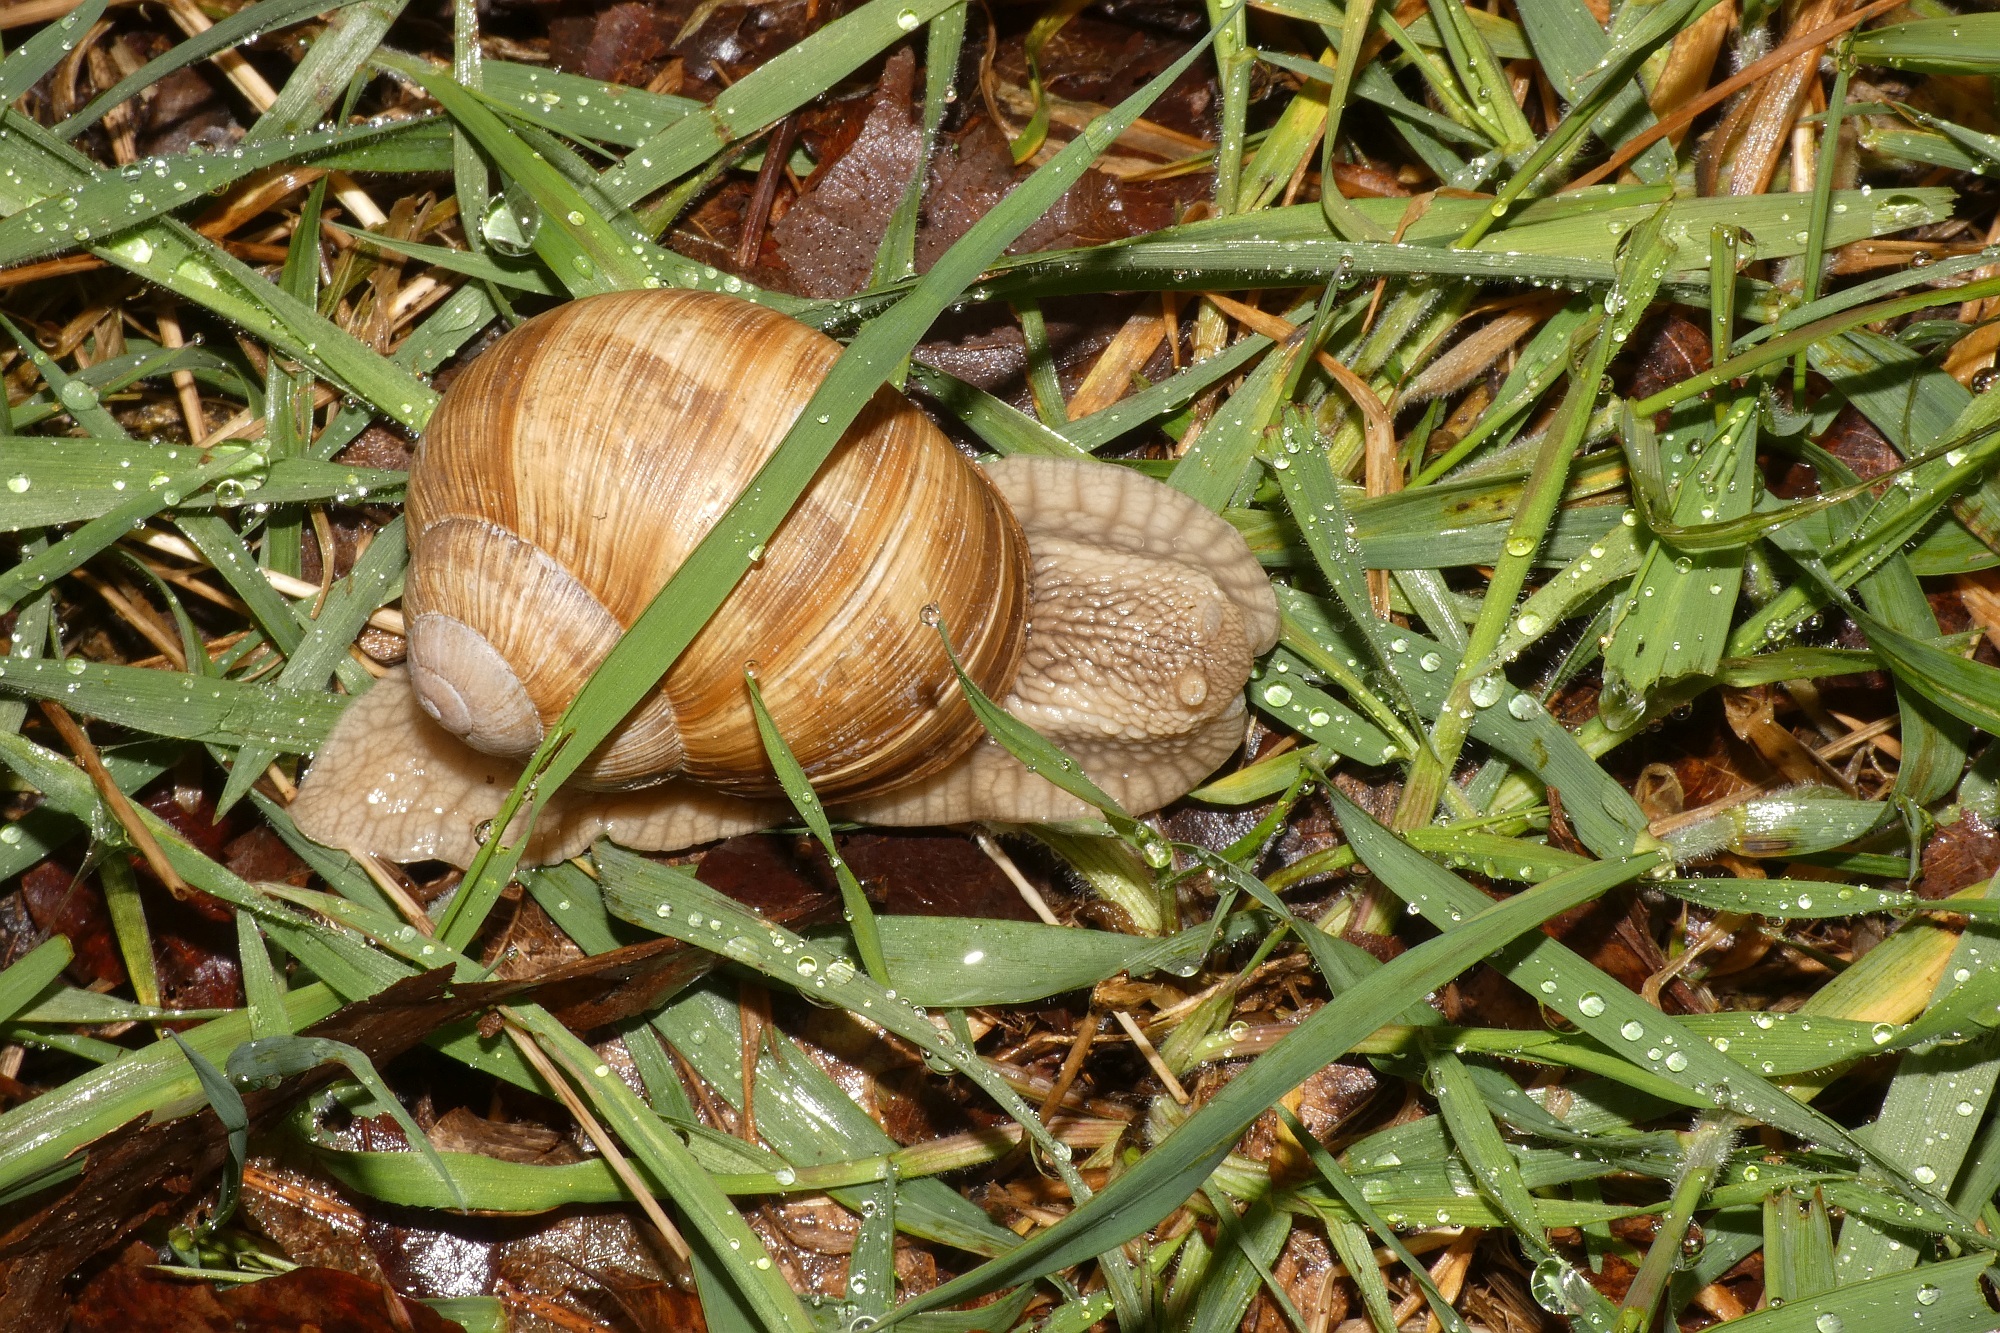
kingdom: Animalia
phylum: Mollusca
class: Gastropoda
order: Stylommatophora
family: Helicidae
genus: Helix
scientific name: Helix pomatia
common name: Roman snail
